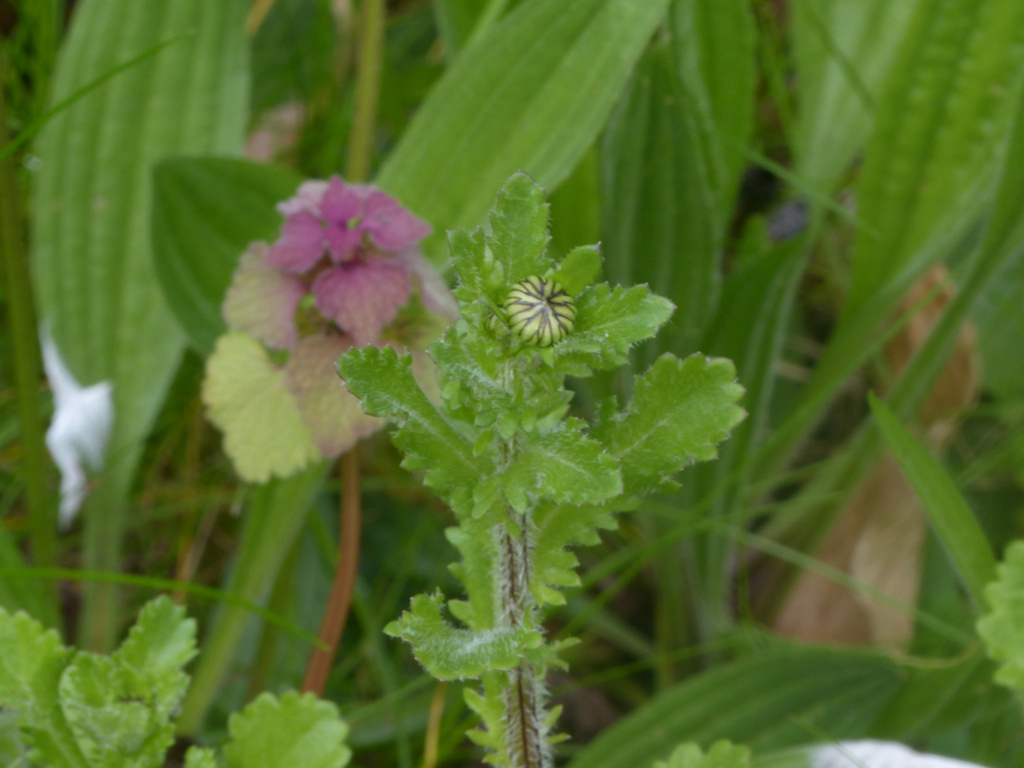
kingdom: Plantae
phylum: Tracheophyta
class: Magnoliopsida
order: Asterales
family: Asteraceae
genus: Leucanthemum
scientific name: Leucanthemum vulgare
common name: Oxeye daisy
